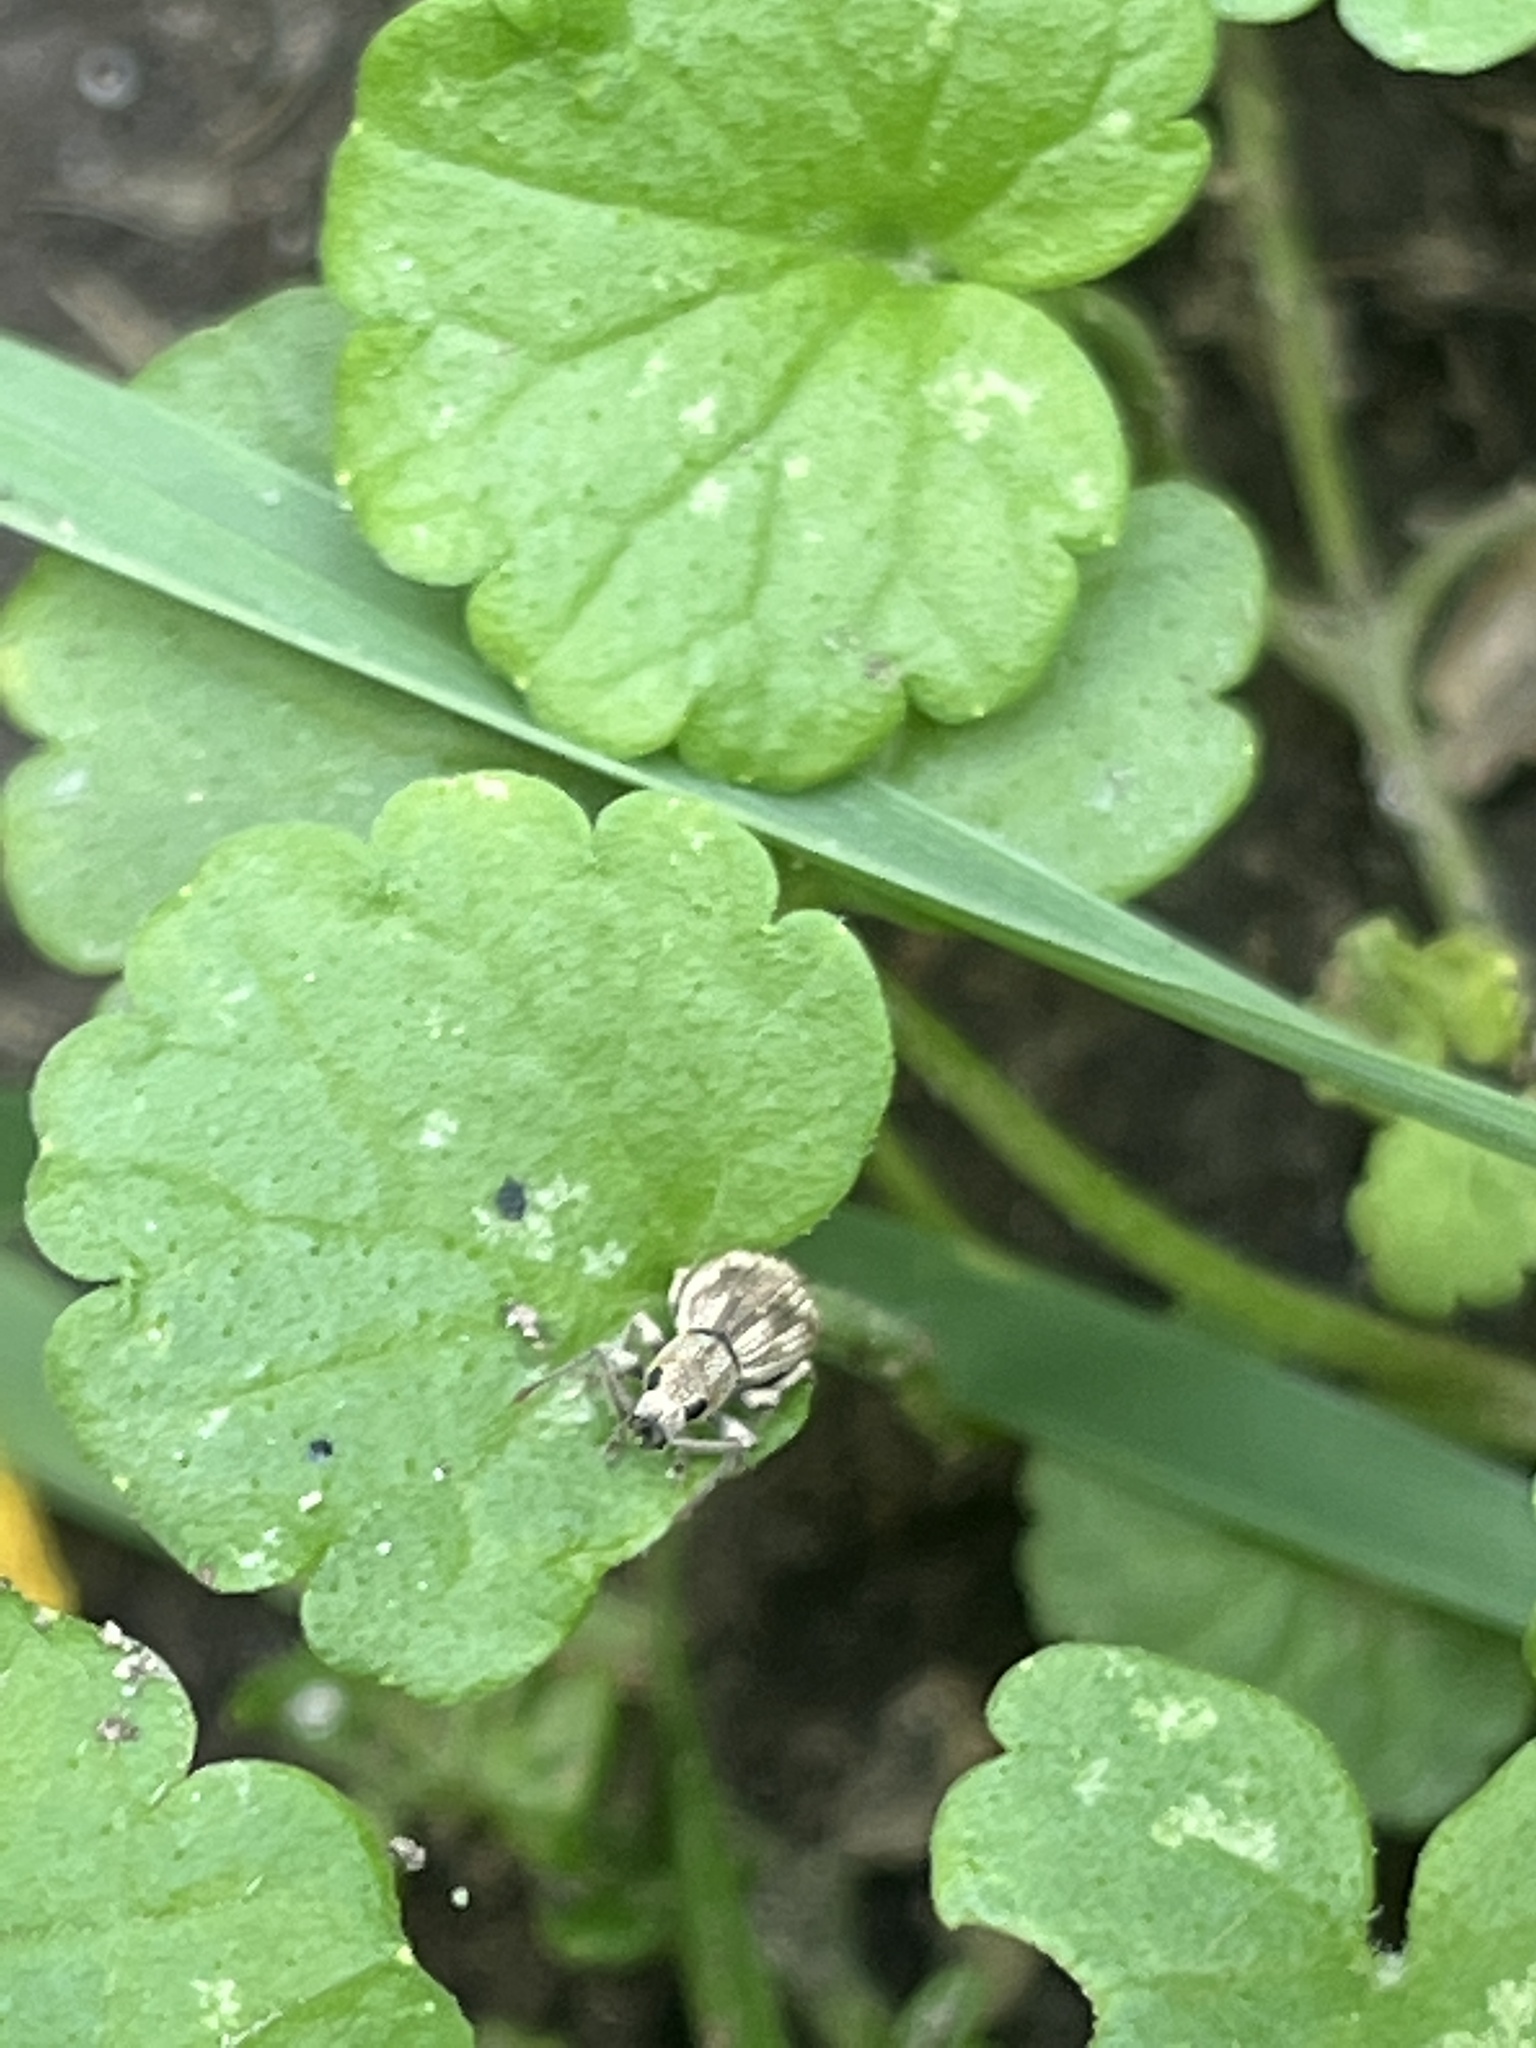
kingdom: Animalia
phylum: Arthropoda
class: Insecta
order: Coleoptera
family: Curculionidae
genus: Calomycterus
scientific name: Calomycterus setarius
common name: Weevil
